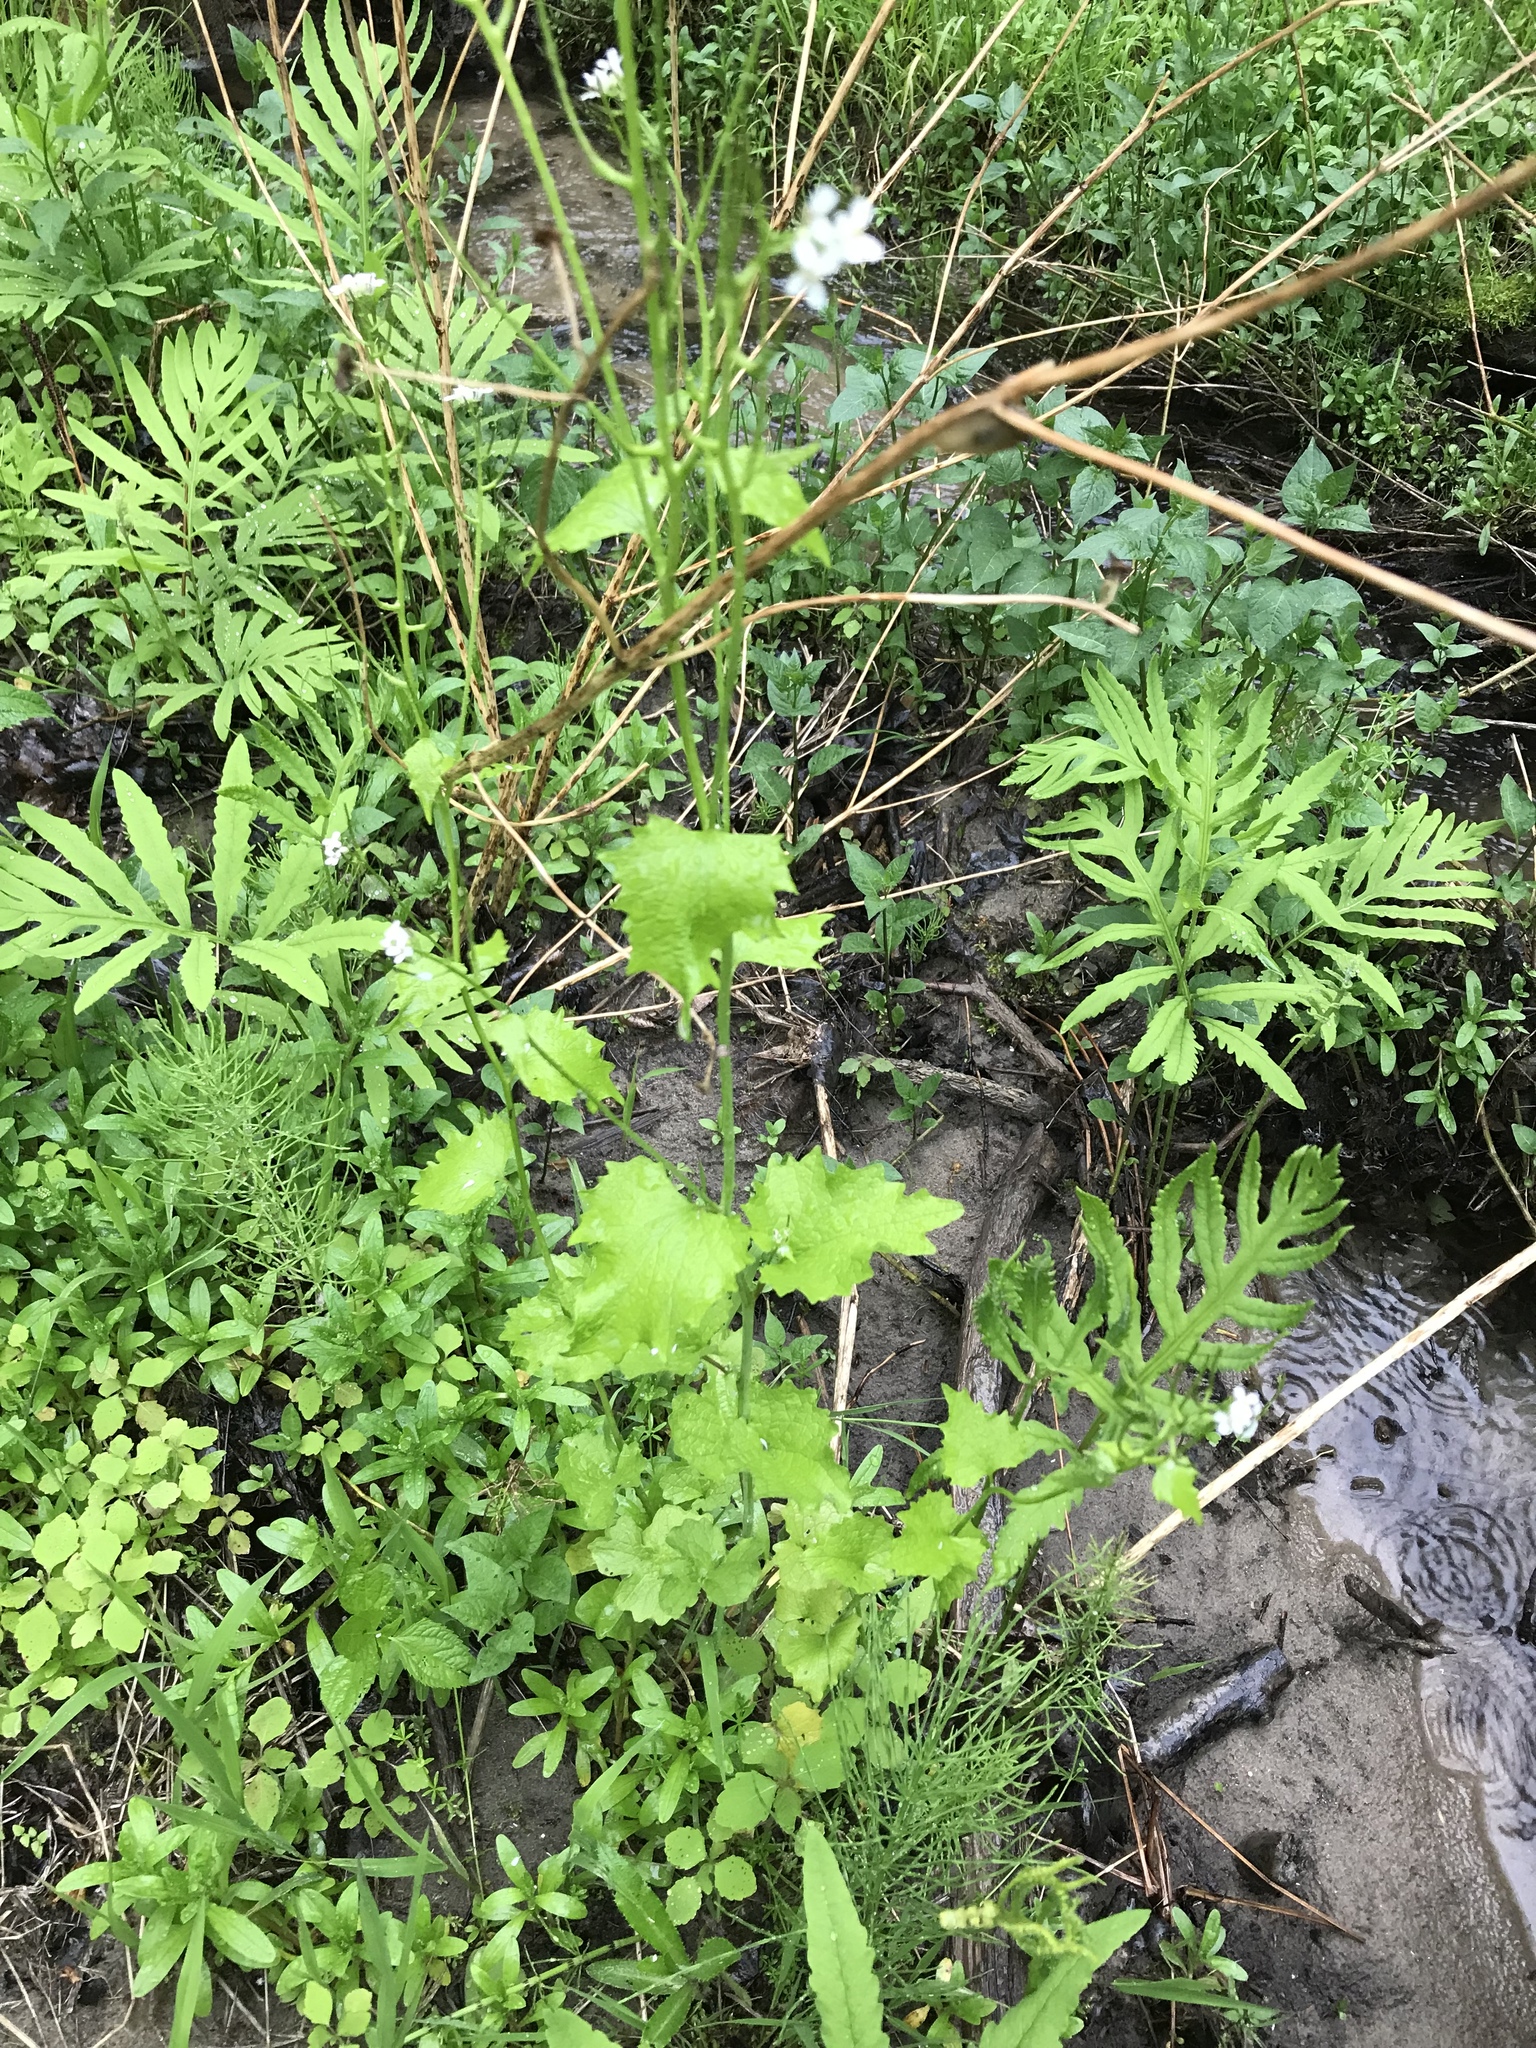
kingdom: Plantae
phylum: Tracheophyta
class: Magnoliopsida
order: Brassicales
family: Brassicaceae
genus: Alliaria
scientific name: Alliaria petiolata
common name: Garlic mustard
